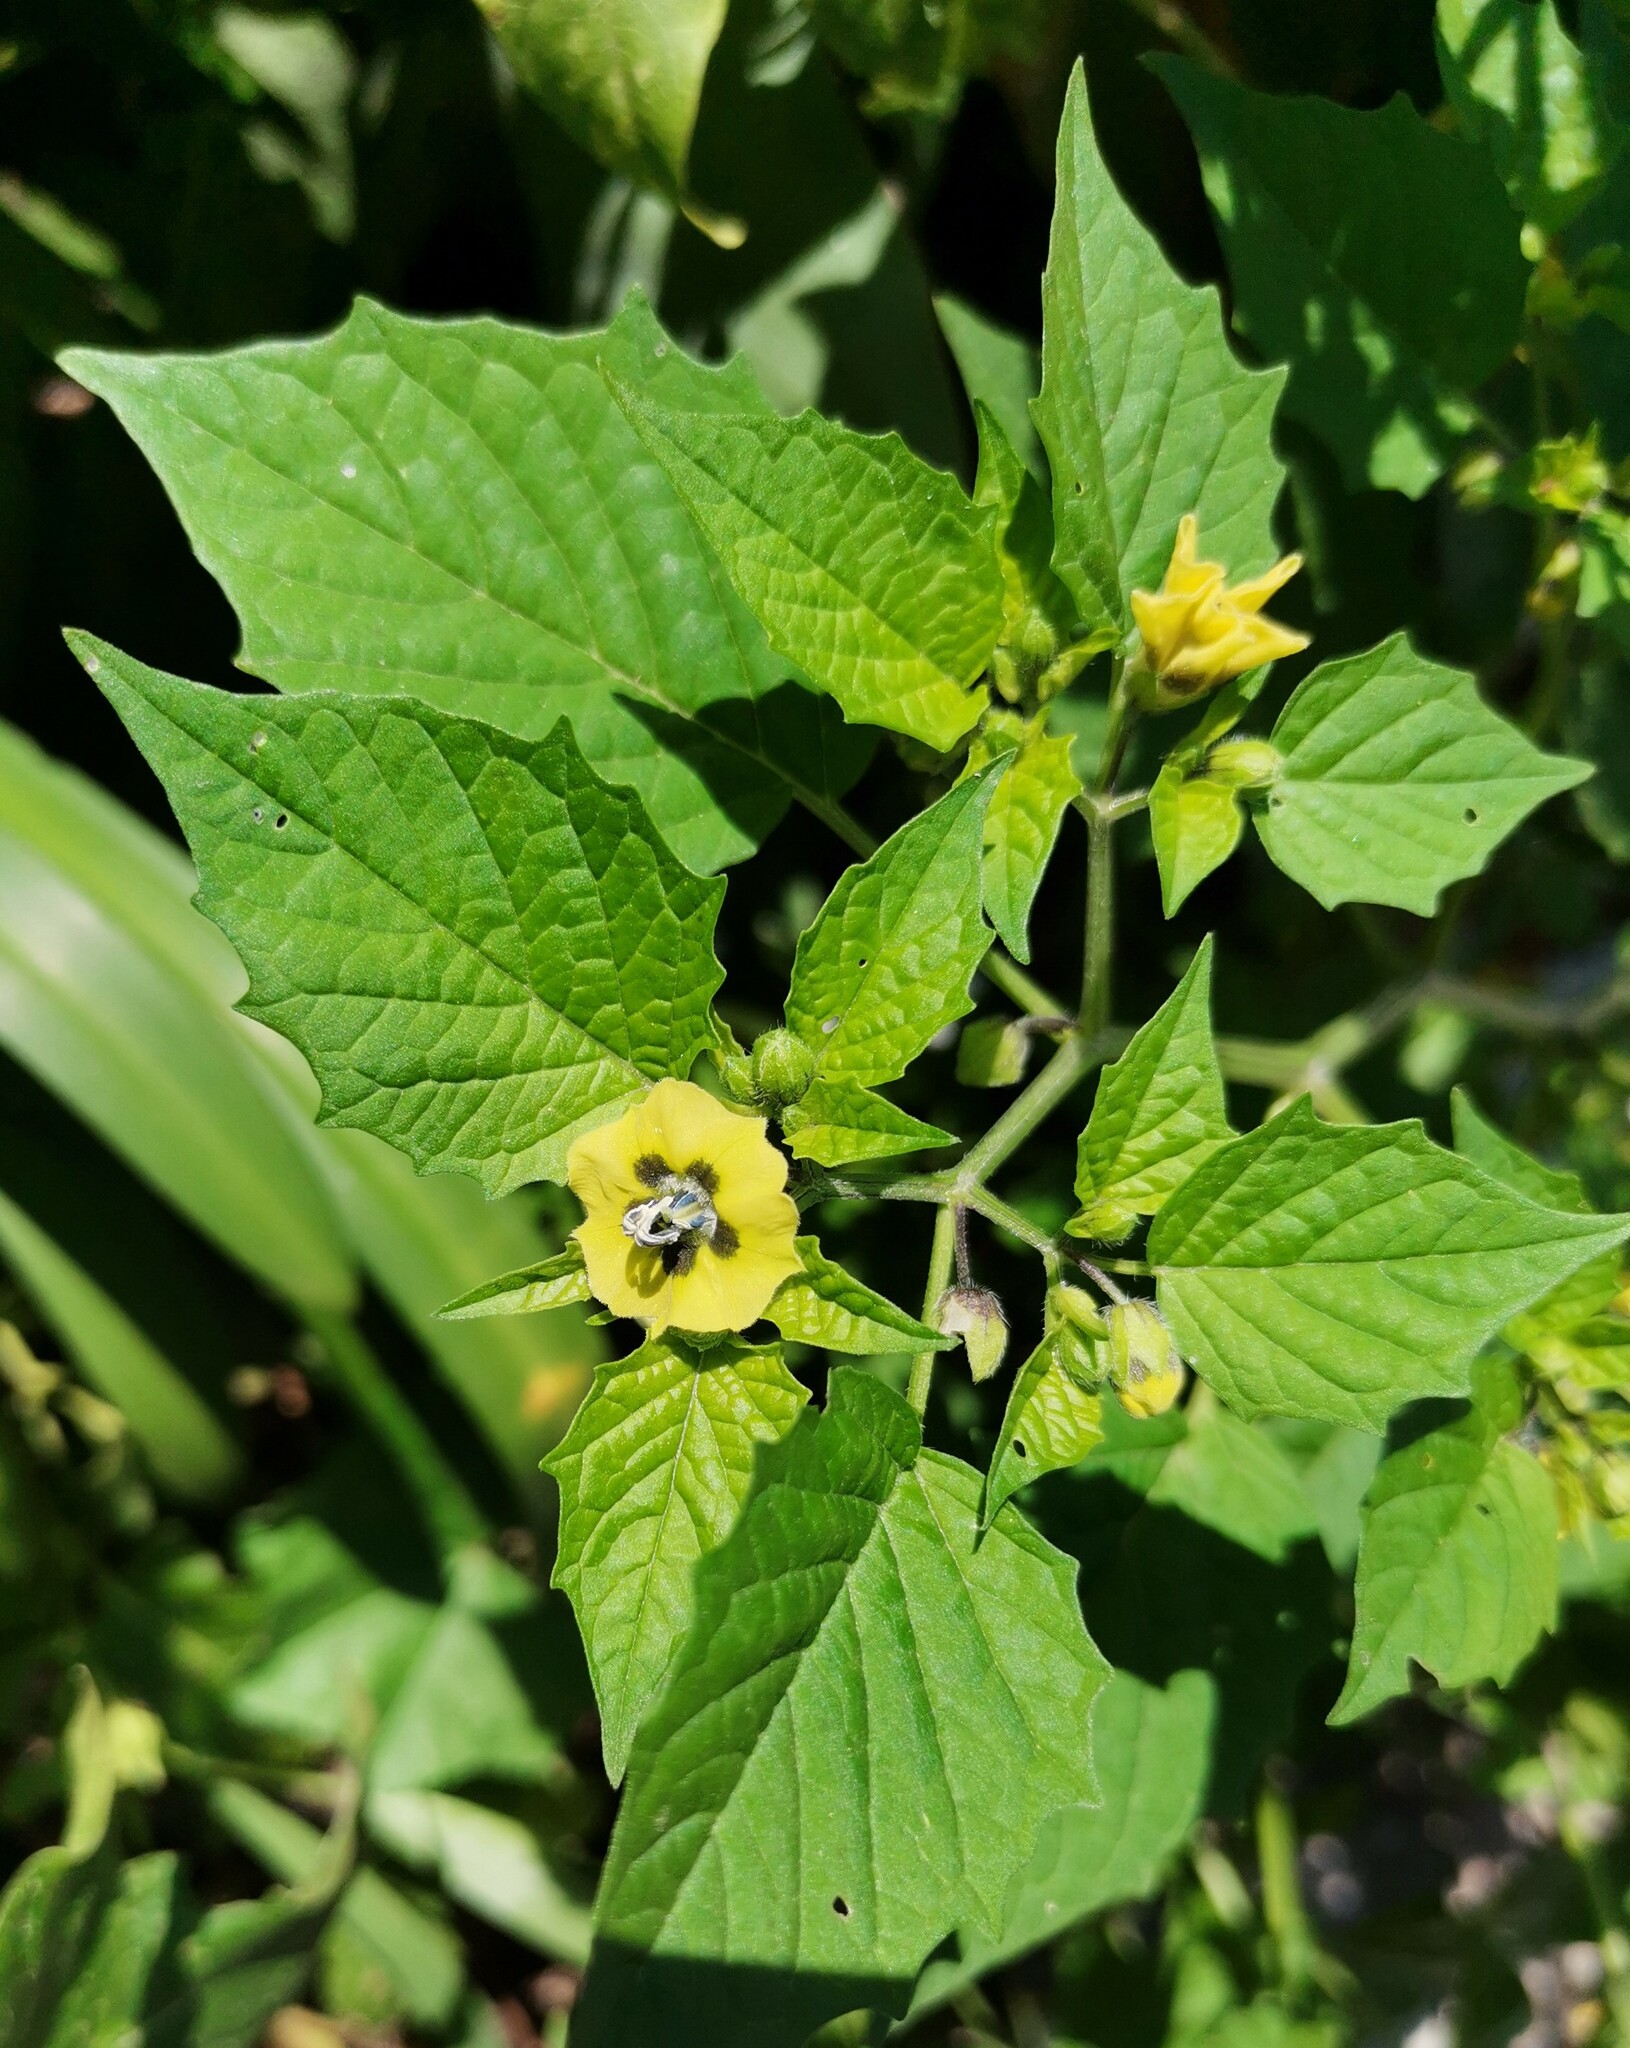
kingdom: Plantae
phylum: Tracheophyta
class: Magnoliopsida
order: Solanales
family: Solanaceae
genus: Physalis
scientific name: Physalis philadelphica
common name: Husk-tomato
